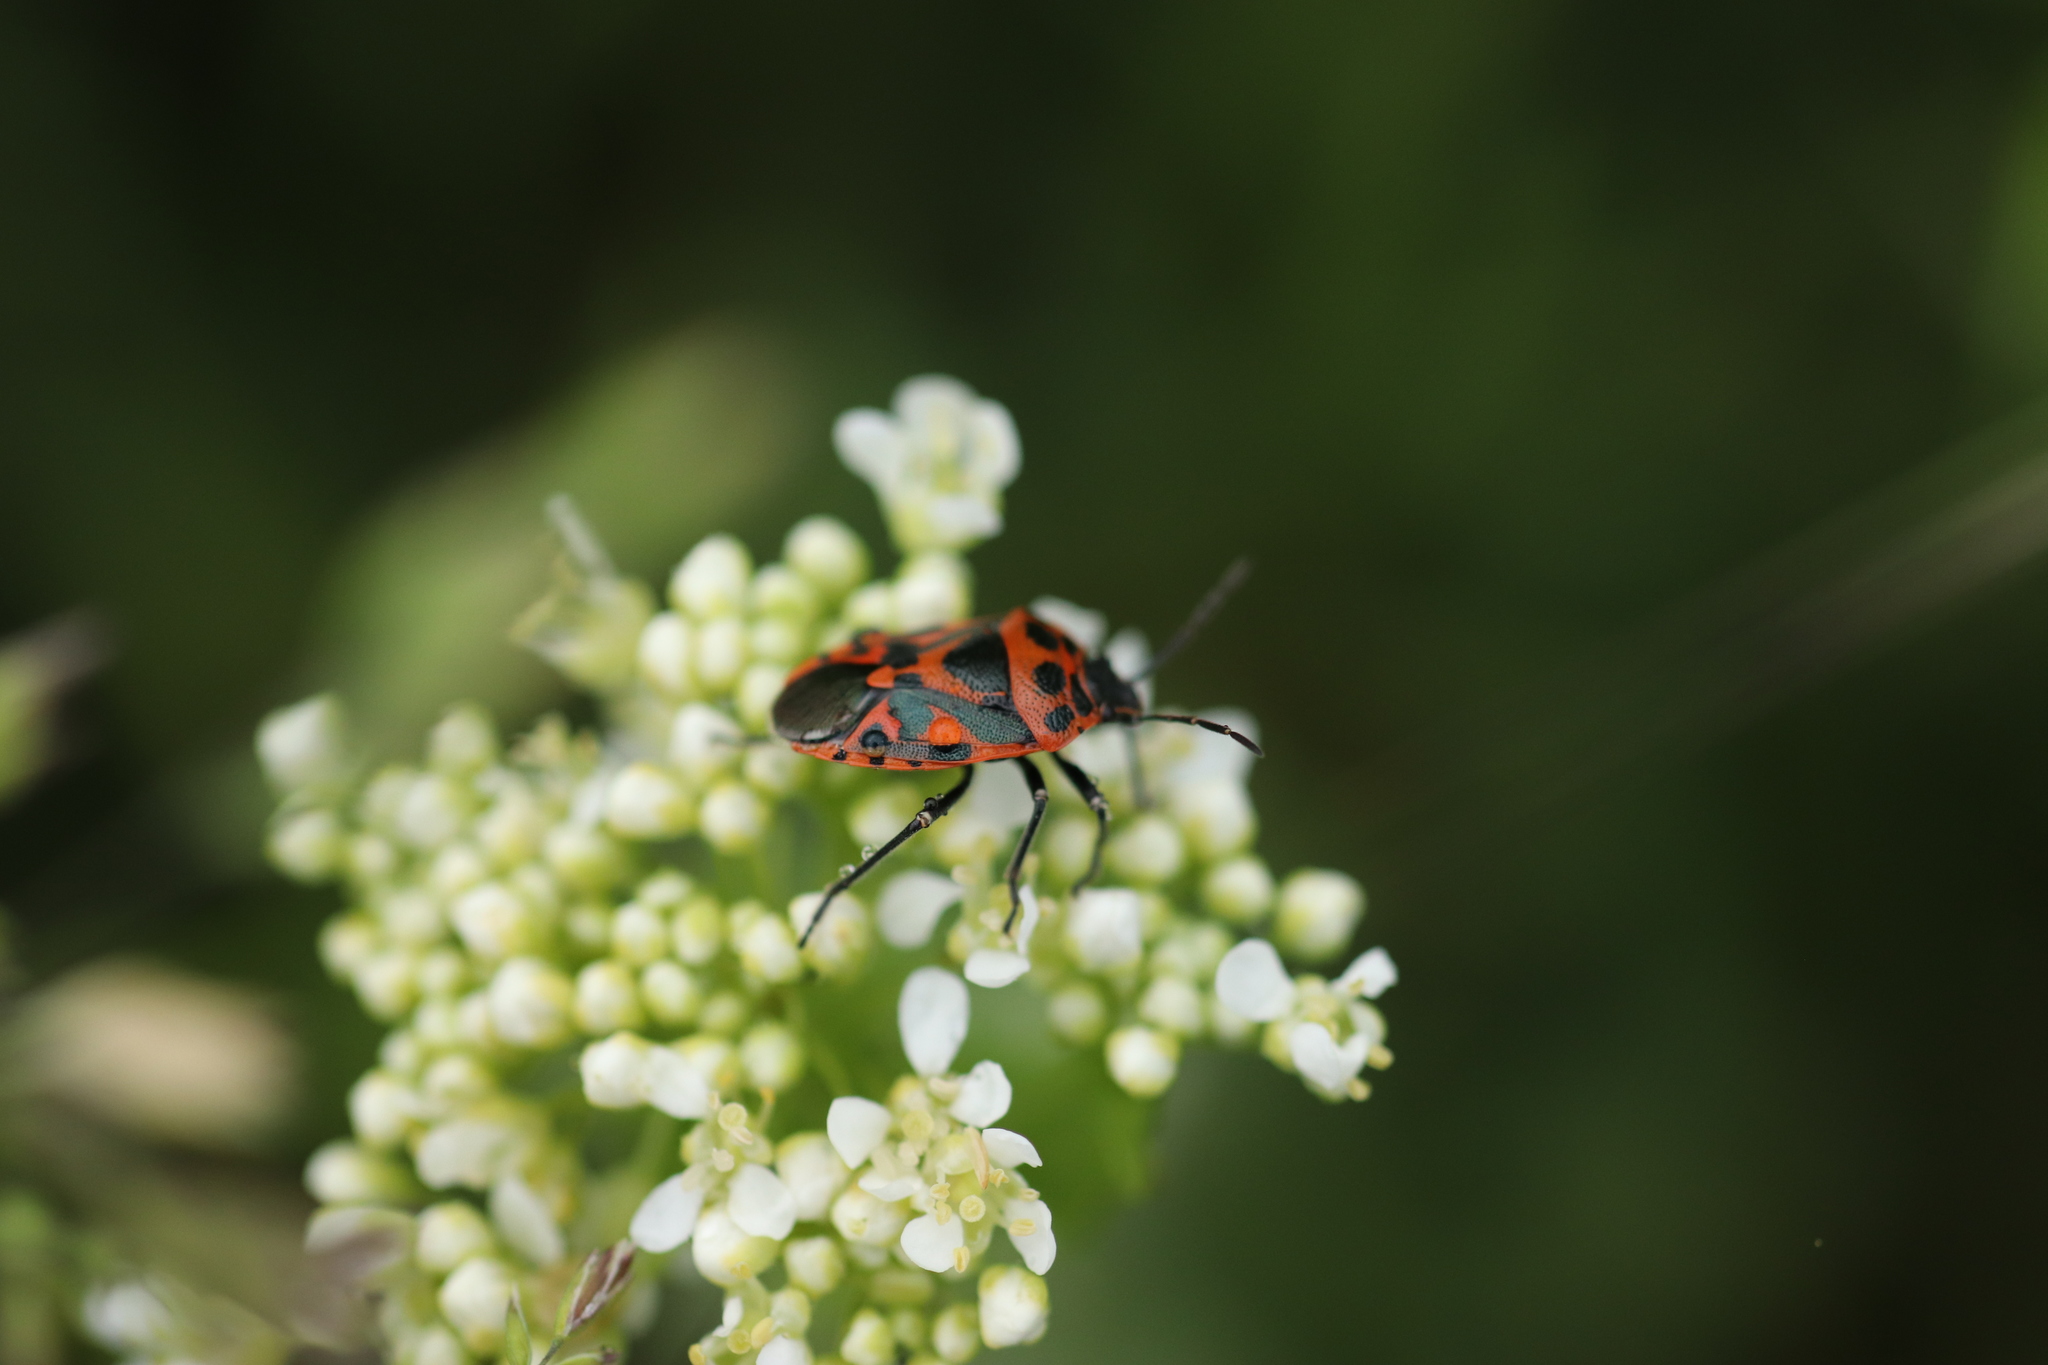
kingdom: Animalia
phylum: Arthropoda
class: Insecta
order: Hemiptera
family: Pentatomidae
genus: Eurydema
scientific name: Eurydema ornata
